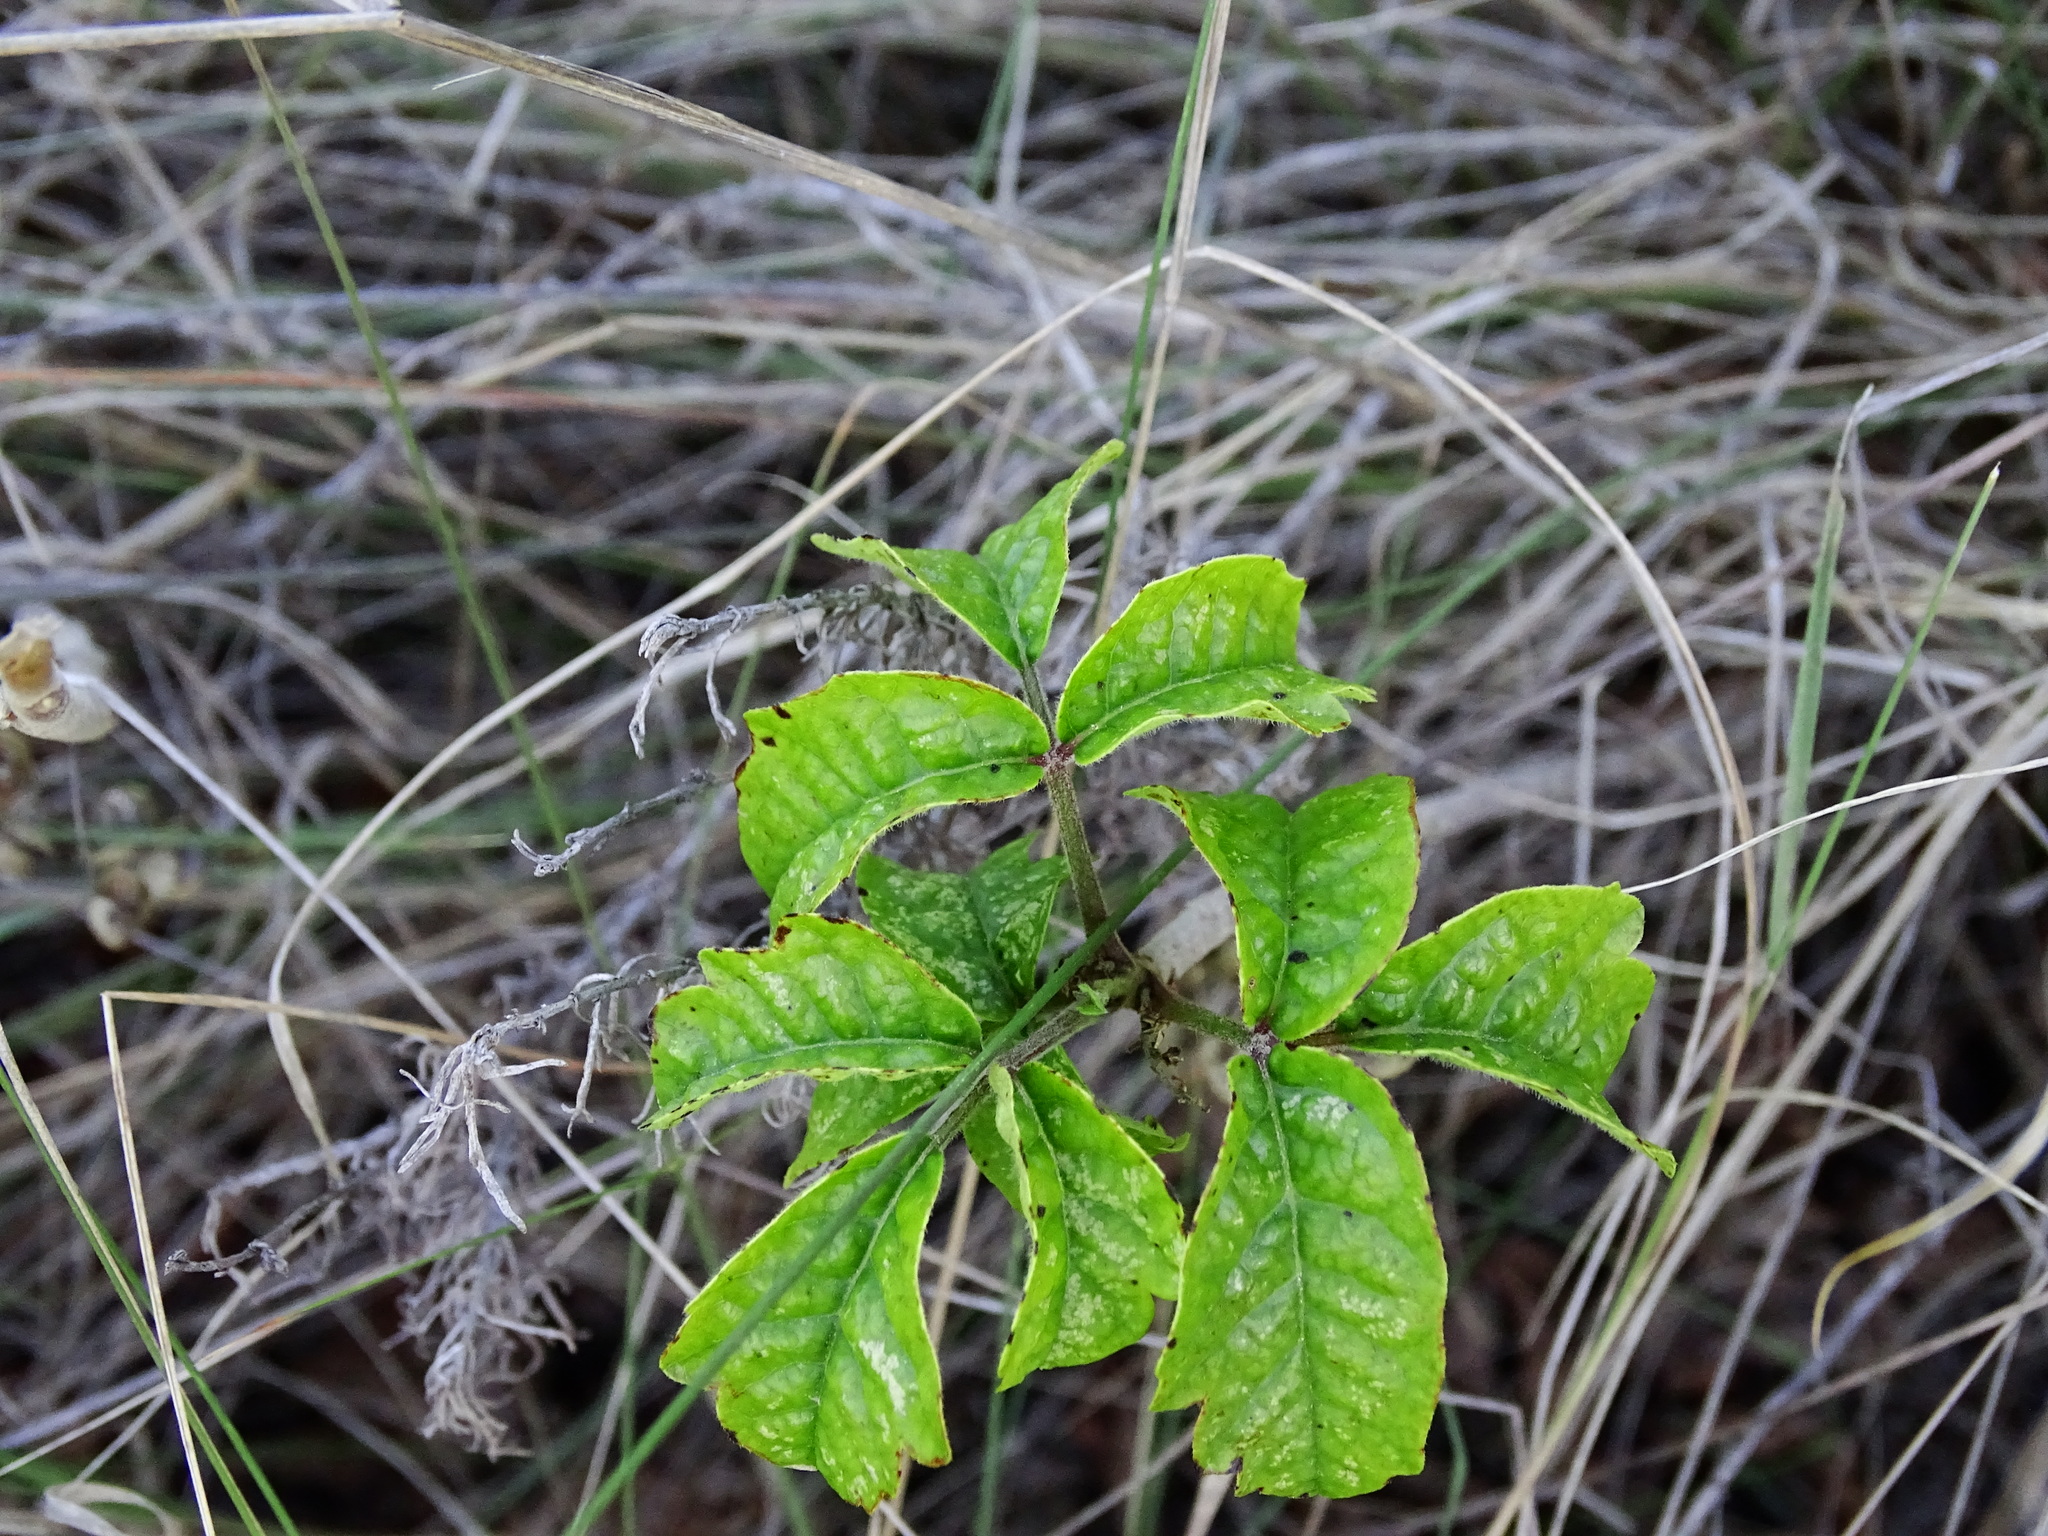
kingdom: Plantae
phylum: Tracheophyta
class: Magnoliopsida
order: Sapindales
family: Anacardiaceae
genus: Toxicodendron
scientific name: Toxicodendron diversilobum
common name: Pacific poison-oak
